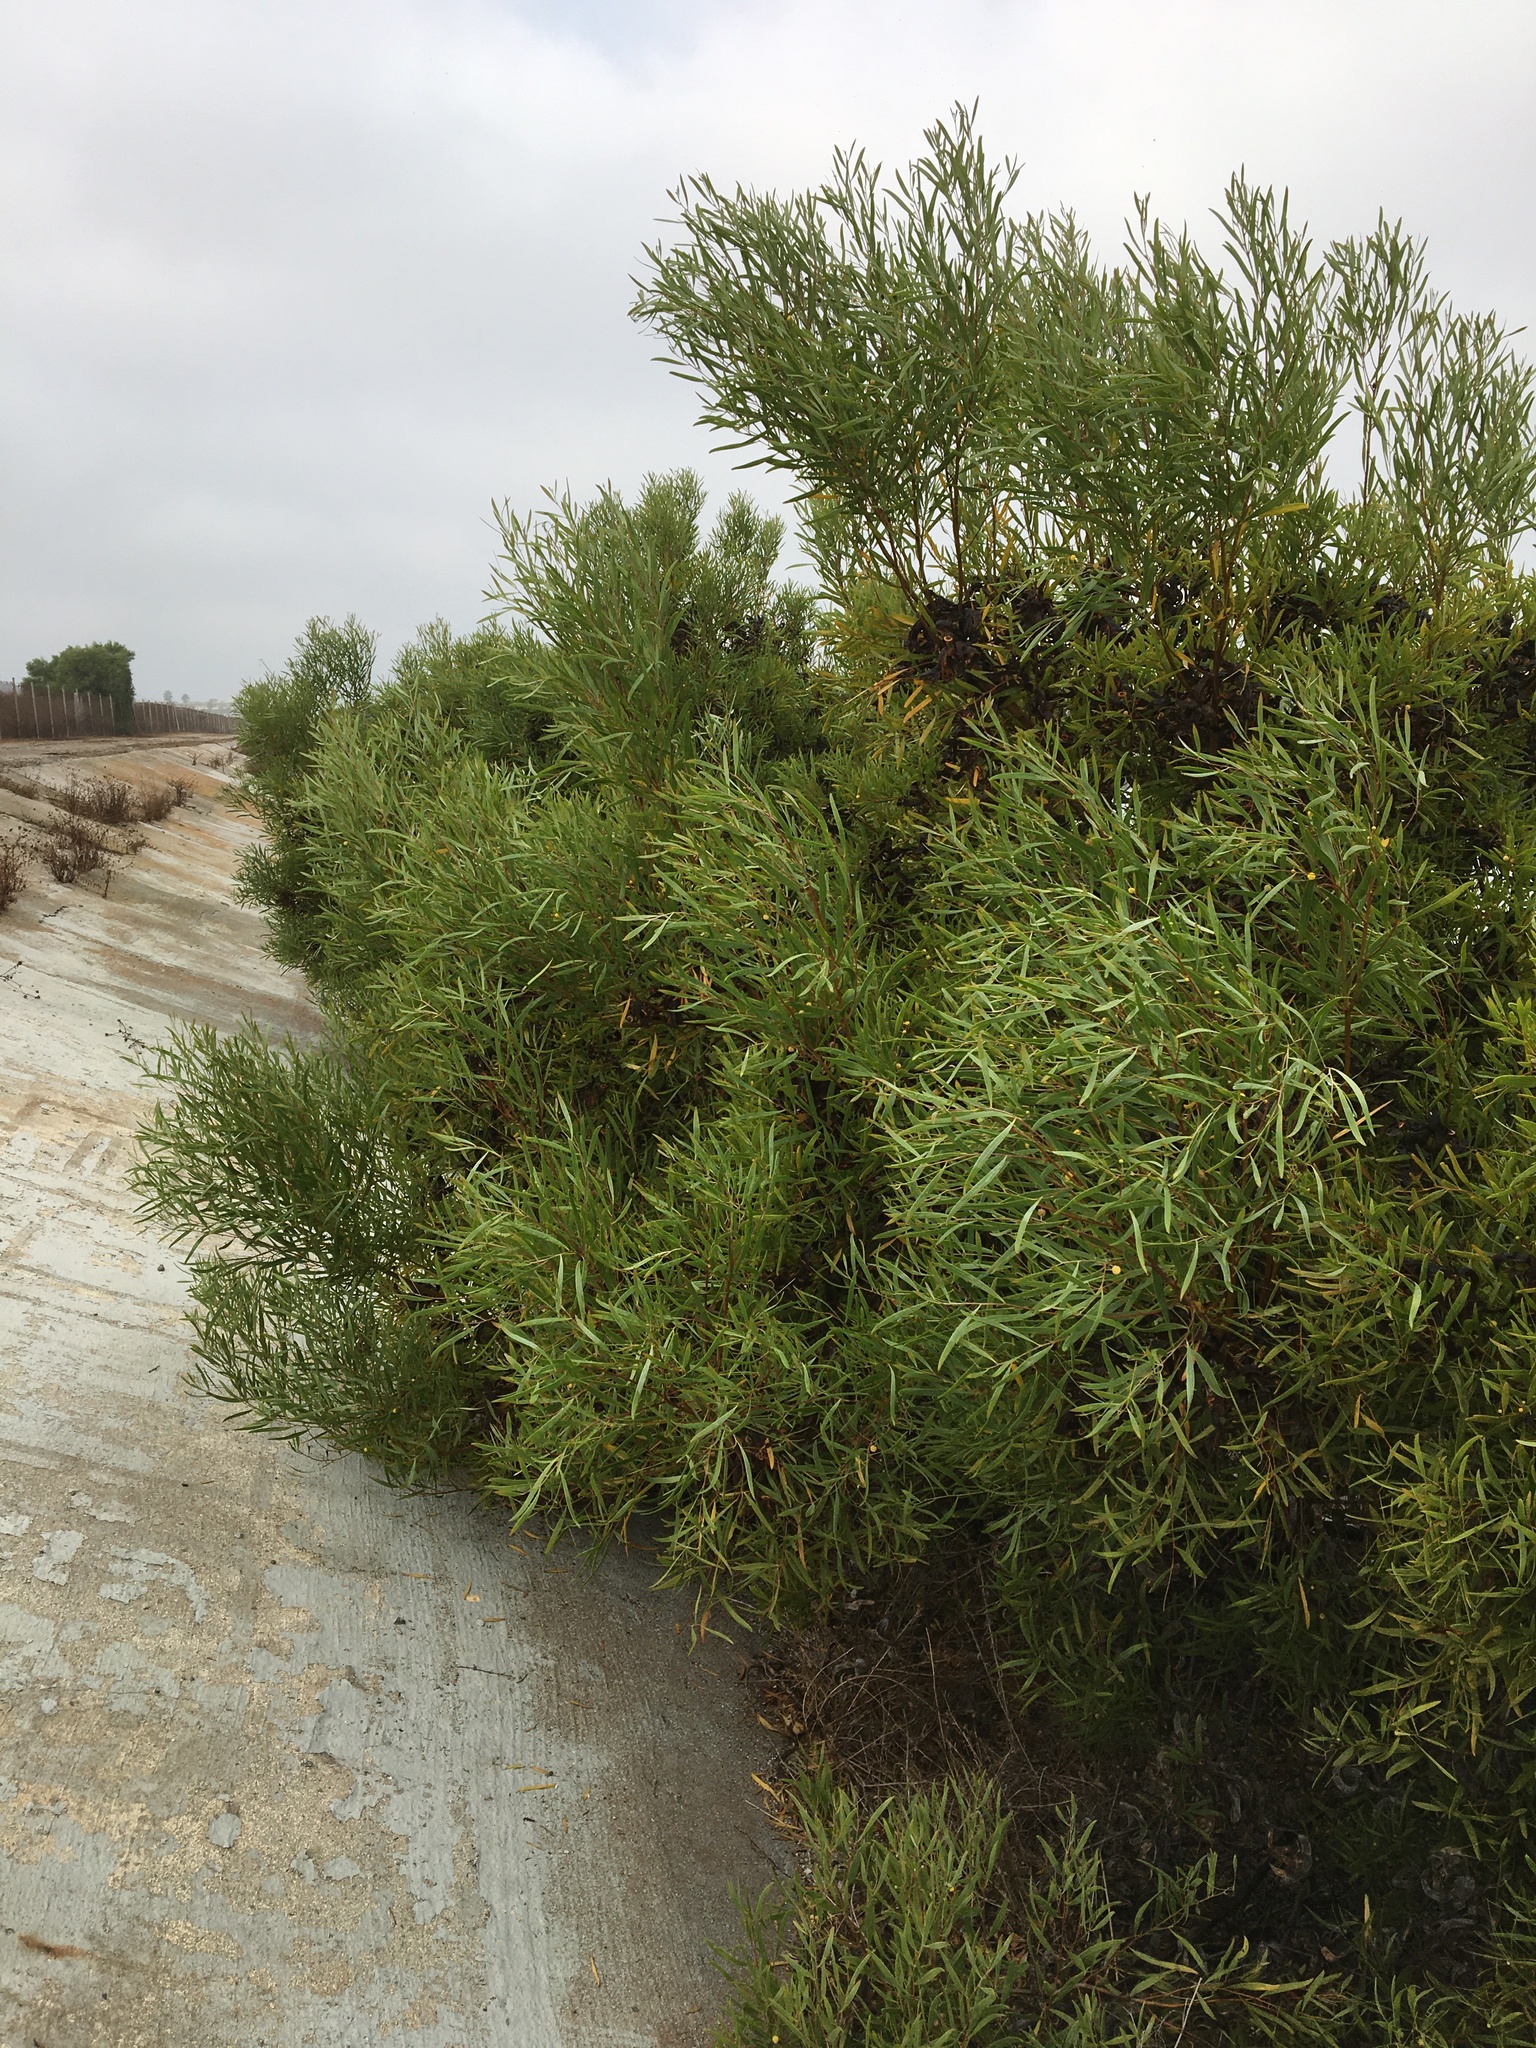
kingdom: Plantae
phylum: Tracheophyta
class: Magnoliopsida
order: Fabales
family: Fabaceae
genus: Acacia
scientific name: Acacia cyclops
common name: Coastal wattle
